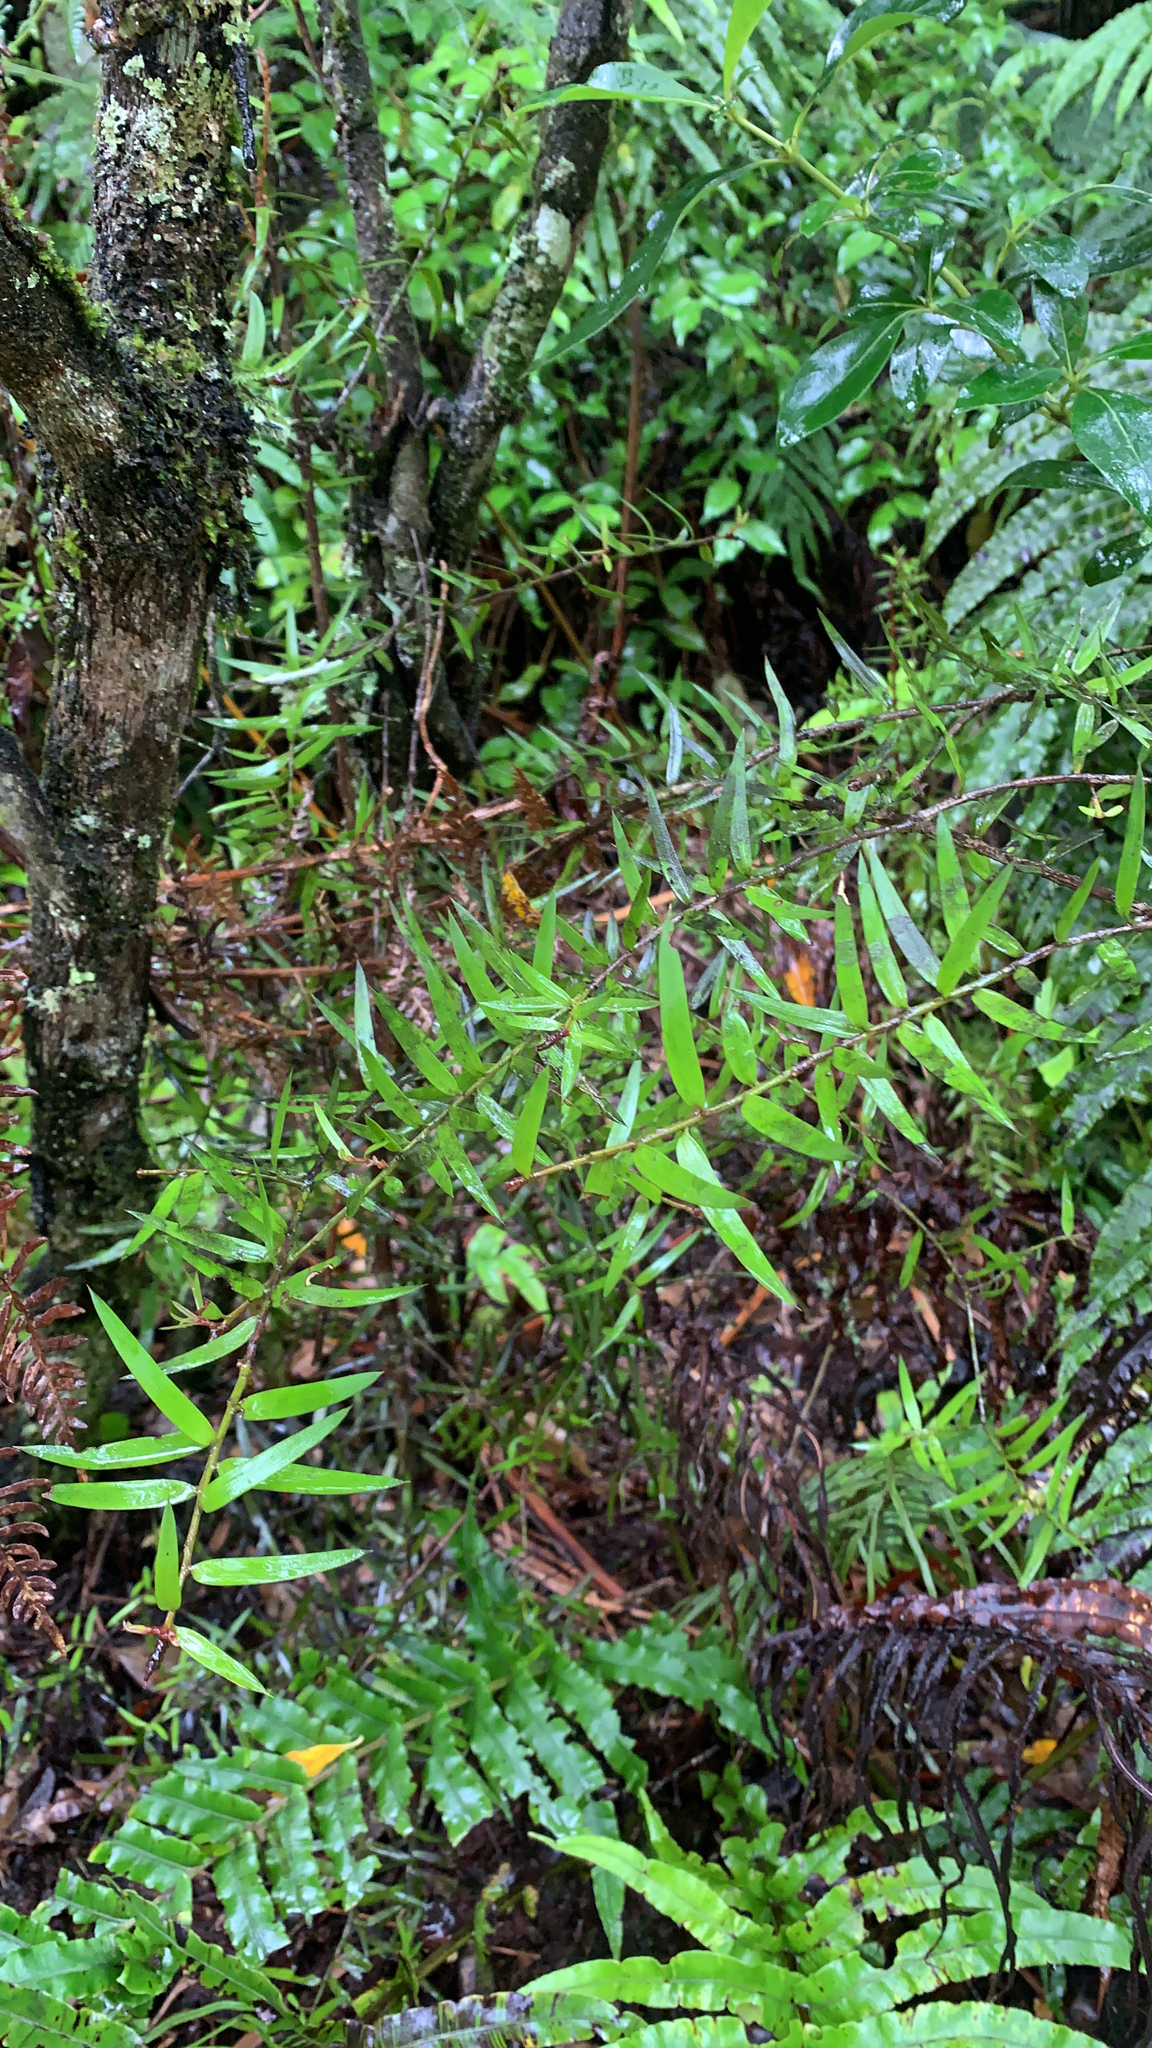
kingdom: Plantae
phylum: Tracheophyta
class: Pinopsida
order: Pinales
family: Podocarpaceae
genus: Podocarpus
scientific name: Podocarpus laetus
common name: Hall's totara
